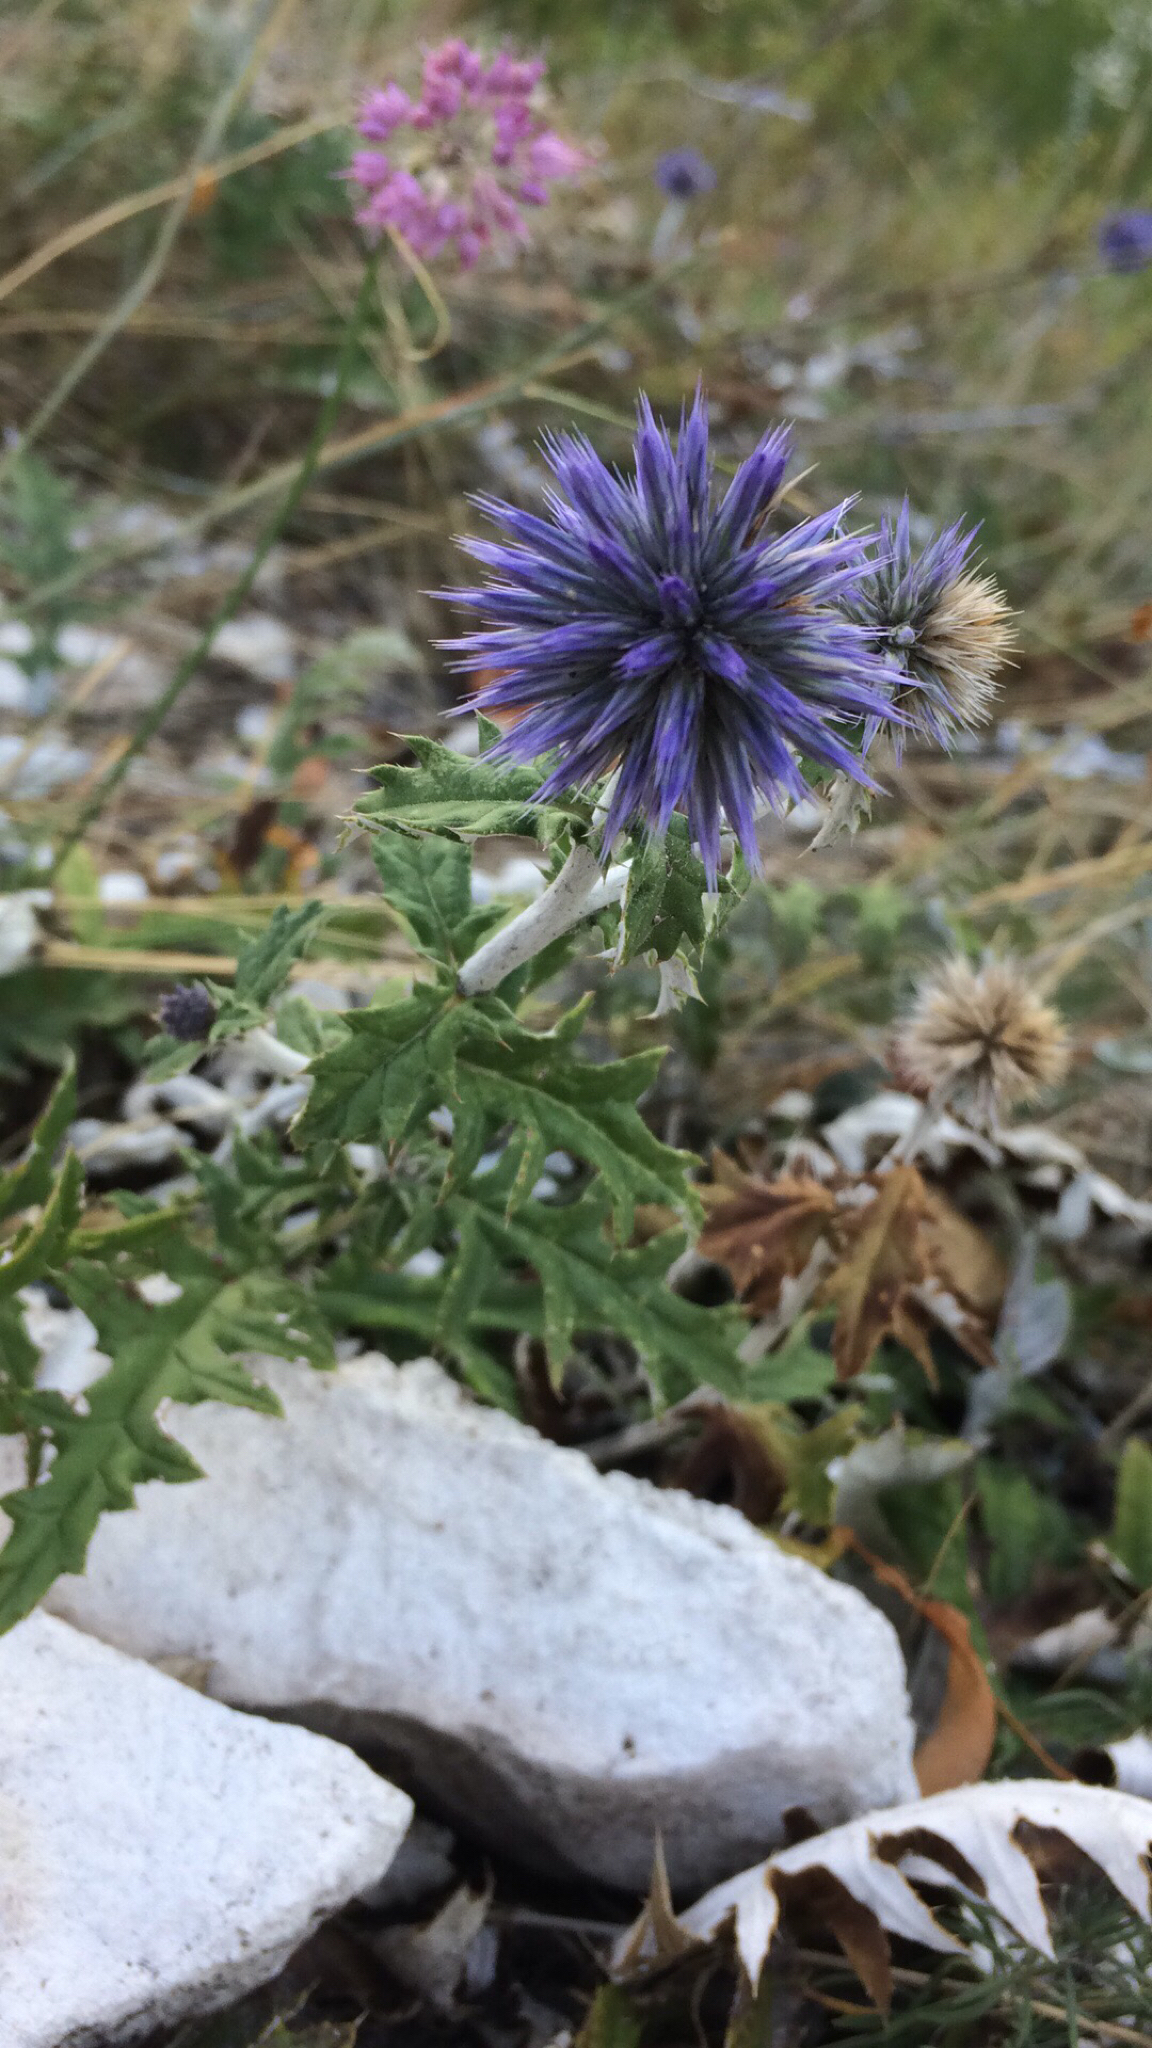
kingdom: Plantae
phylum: Tracheophyta
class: Magnoliopsida
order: Asterales
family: Asteraceae
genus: Echinops
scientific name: Echinops ritro
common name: Globe thistle
